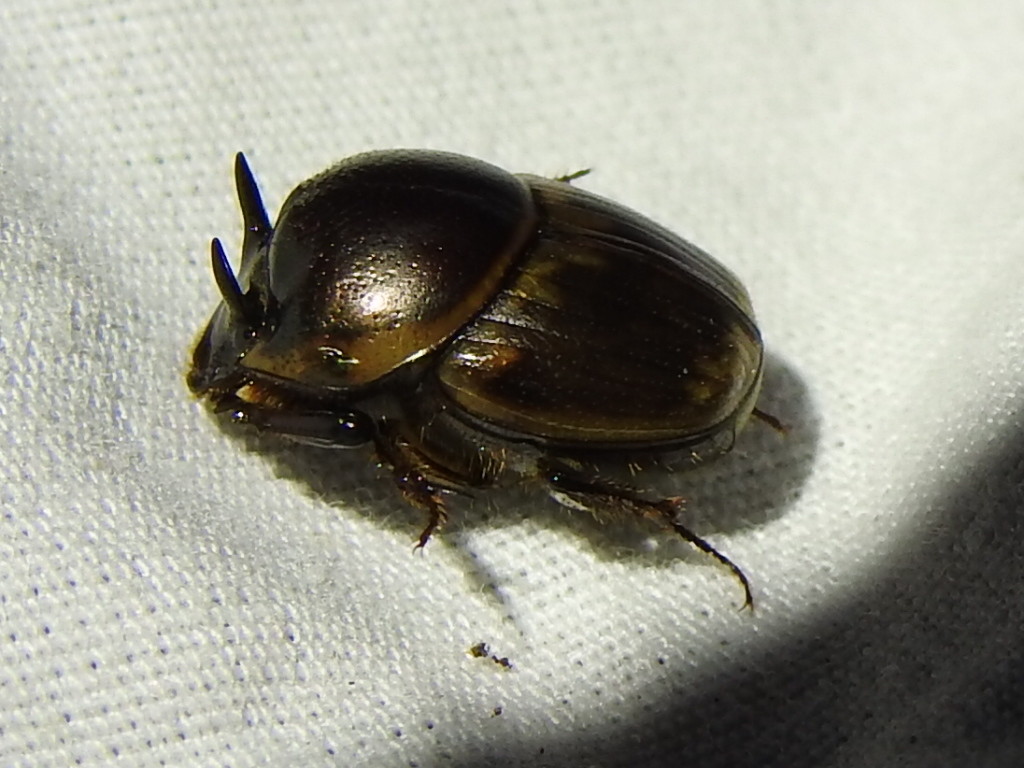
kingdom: Animalia
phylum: Arthropoda
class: Insecta
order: Coleoptera
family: Scarabaeidae
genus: Digitonthophagus
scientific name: Digitonthophagus gazella
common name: Brown dung beetle
